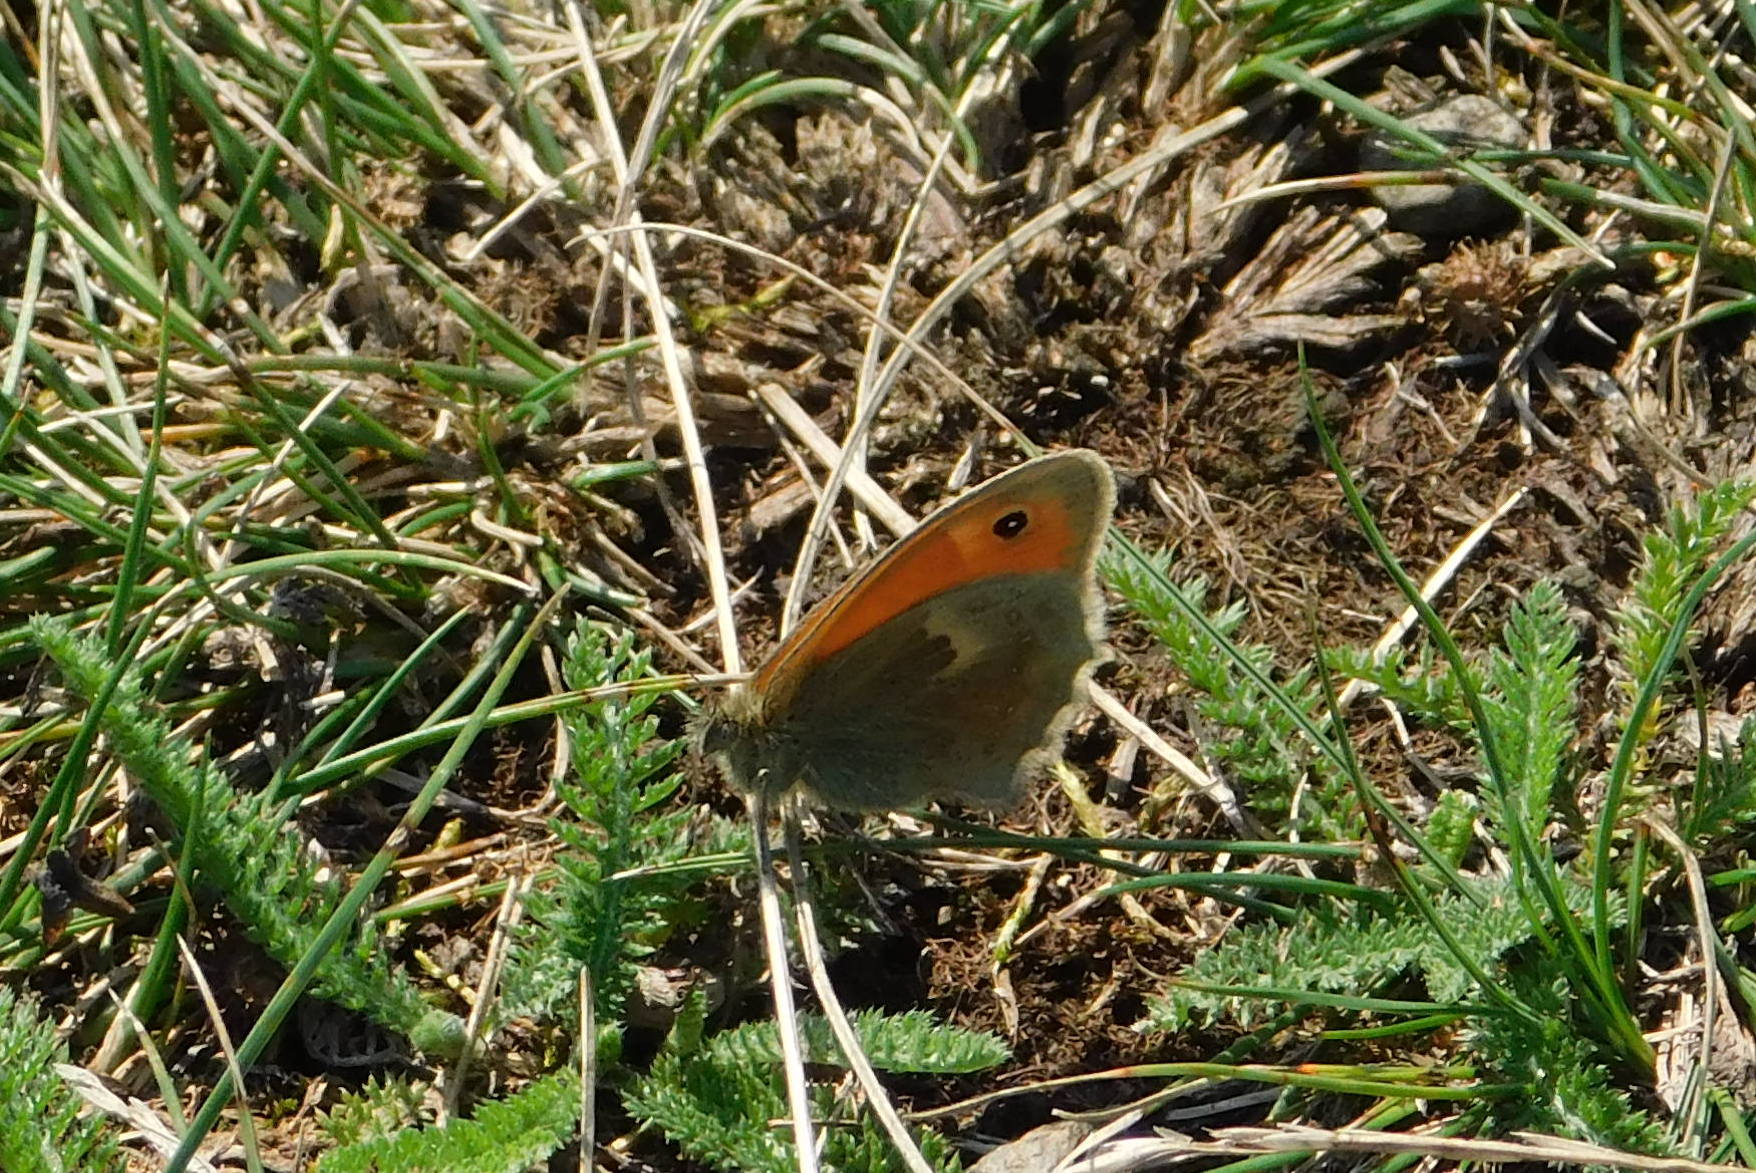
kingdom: Animalia
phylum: Arthropoda
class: Insecta
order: Lepidoptera
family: Nymphalidae
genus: Coenonympha
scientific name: Coenonympha pamphilus
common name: Small heath
